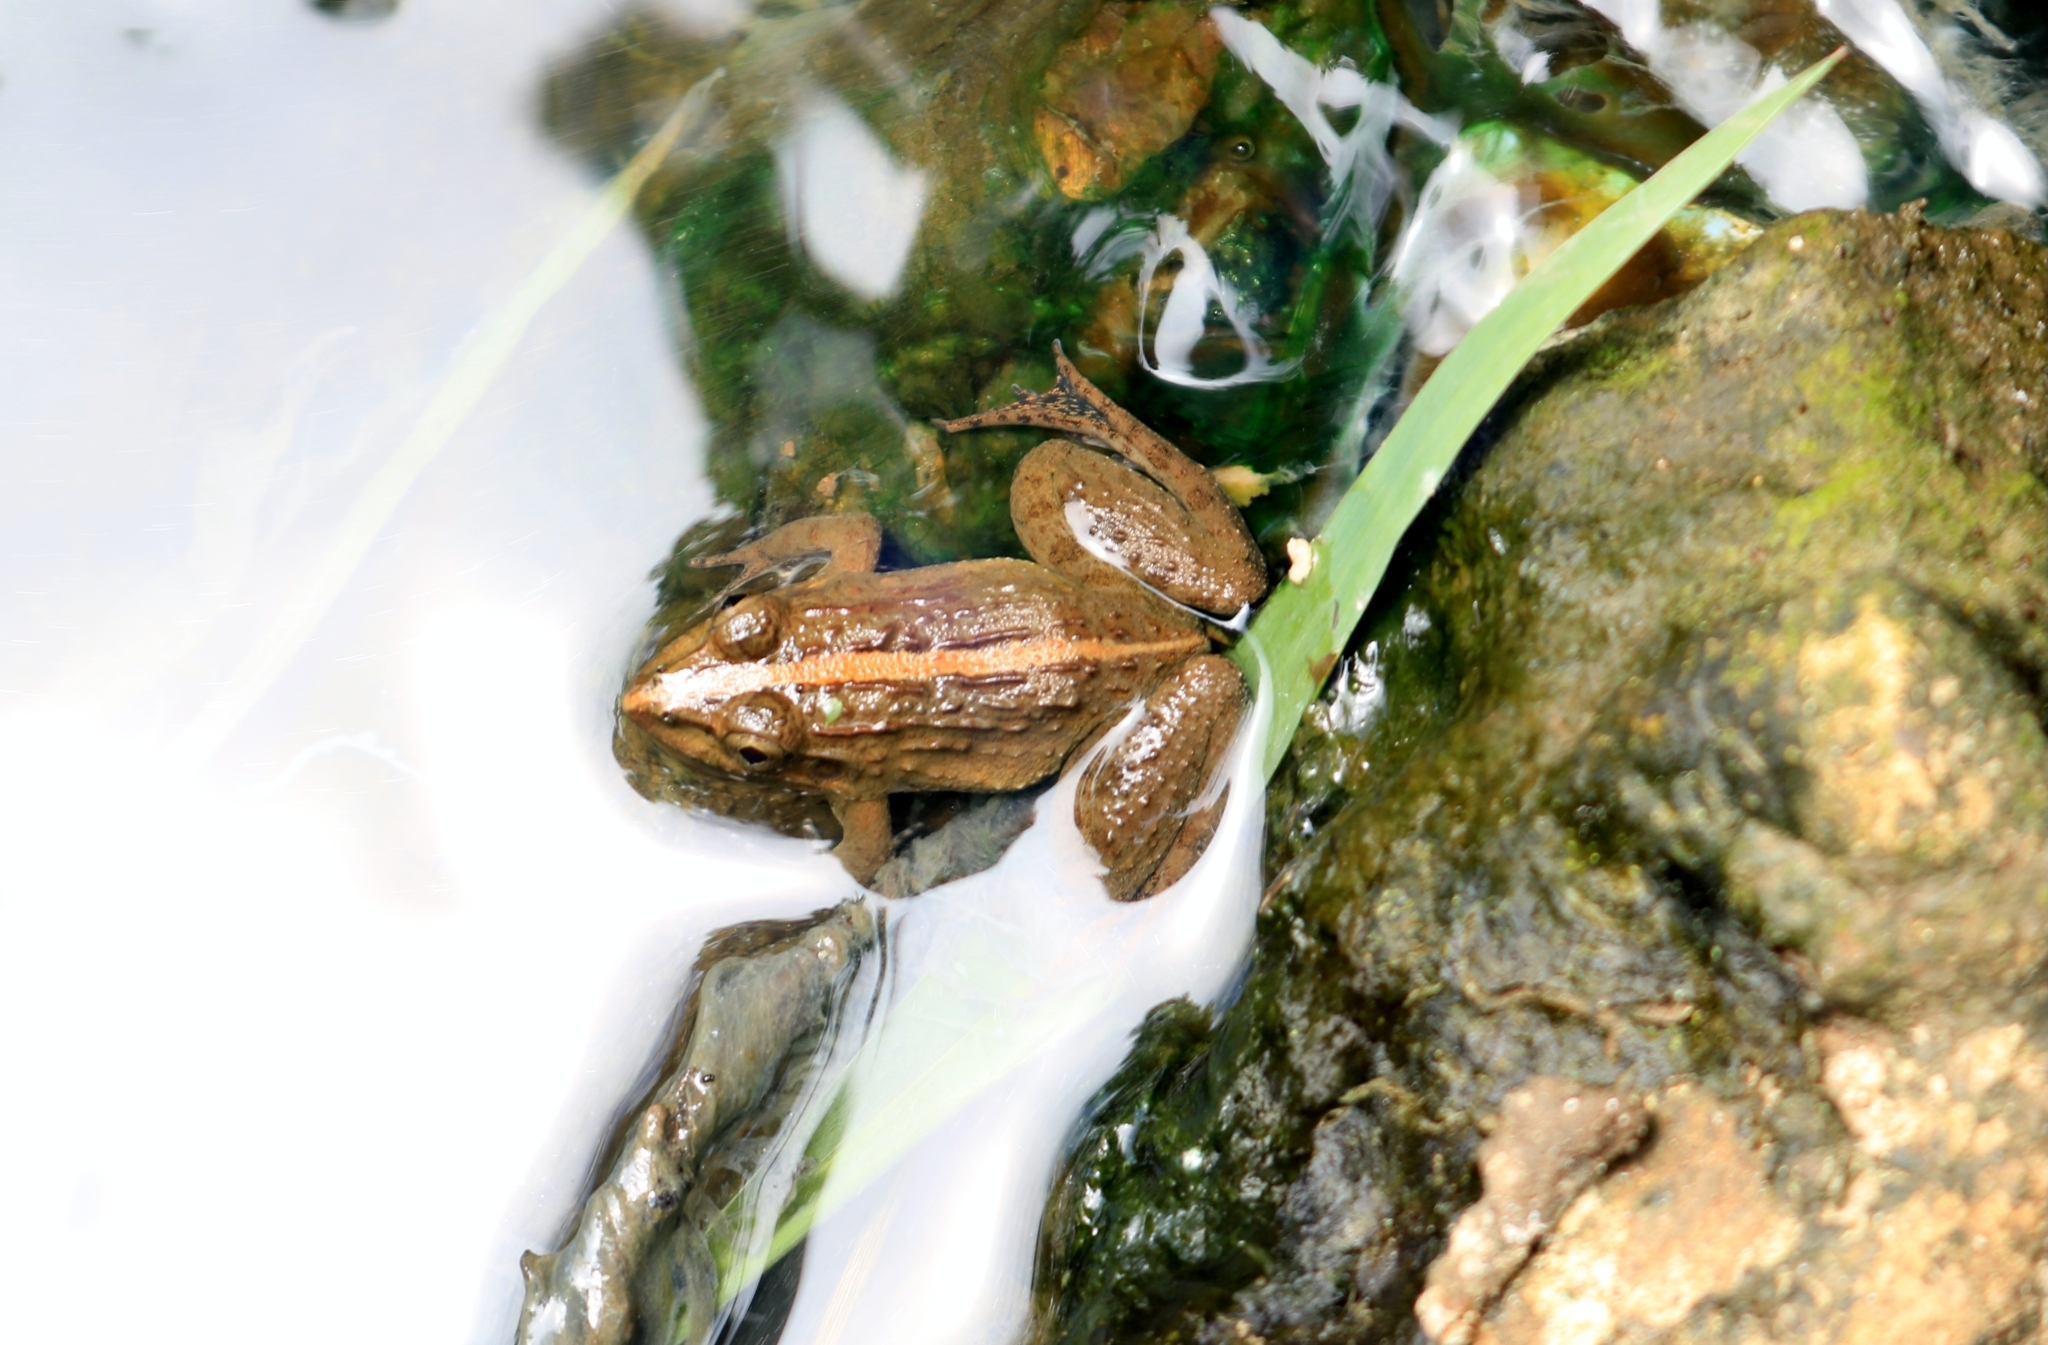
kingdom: Animalia
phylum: Chordata
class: Amphibia
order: Anura
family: Dicroglossidae
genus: Fejervarya
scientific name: Fejervarya limnocharis
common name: Asian grass frog/common pond frog/field frog/grass frog/indian rice frog
